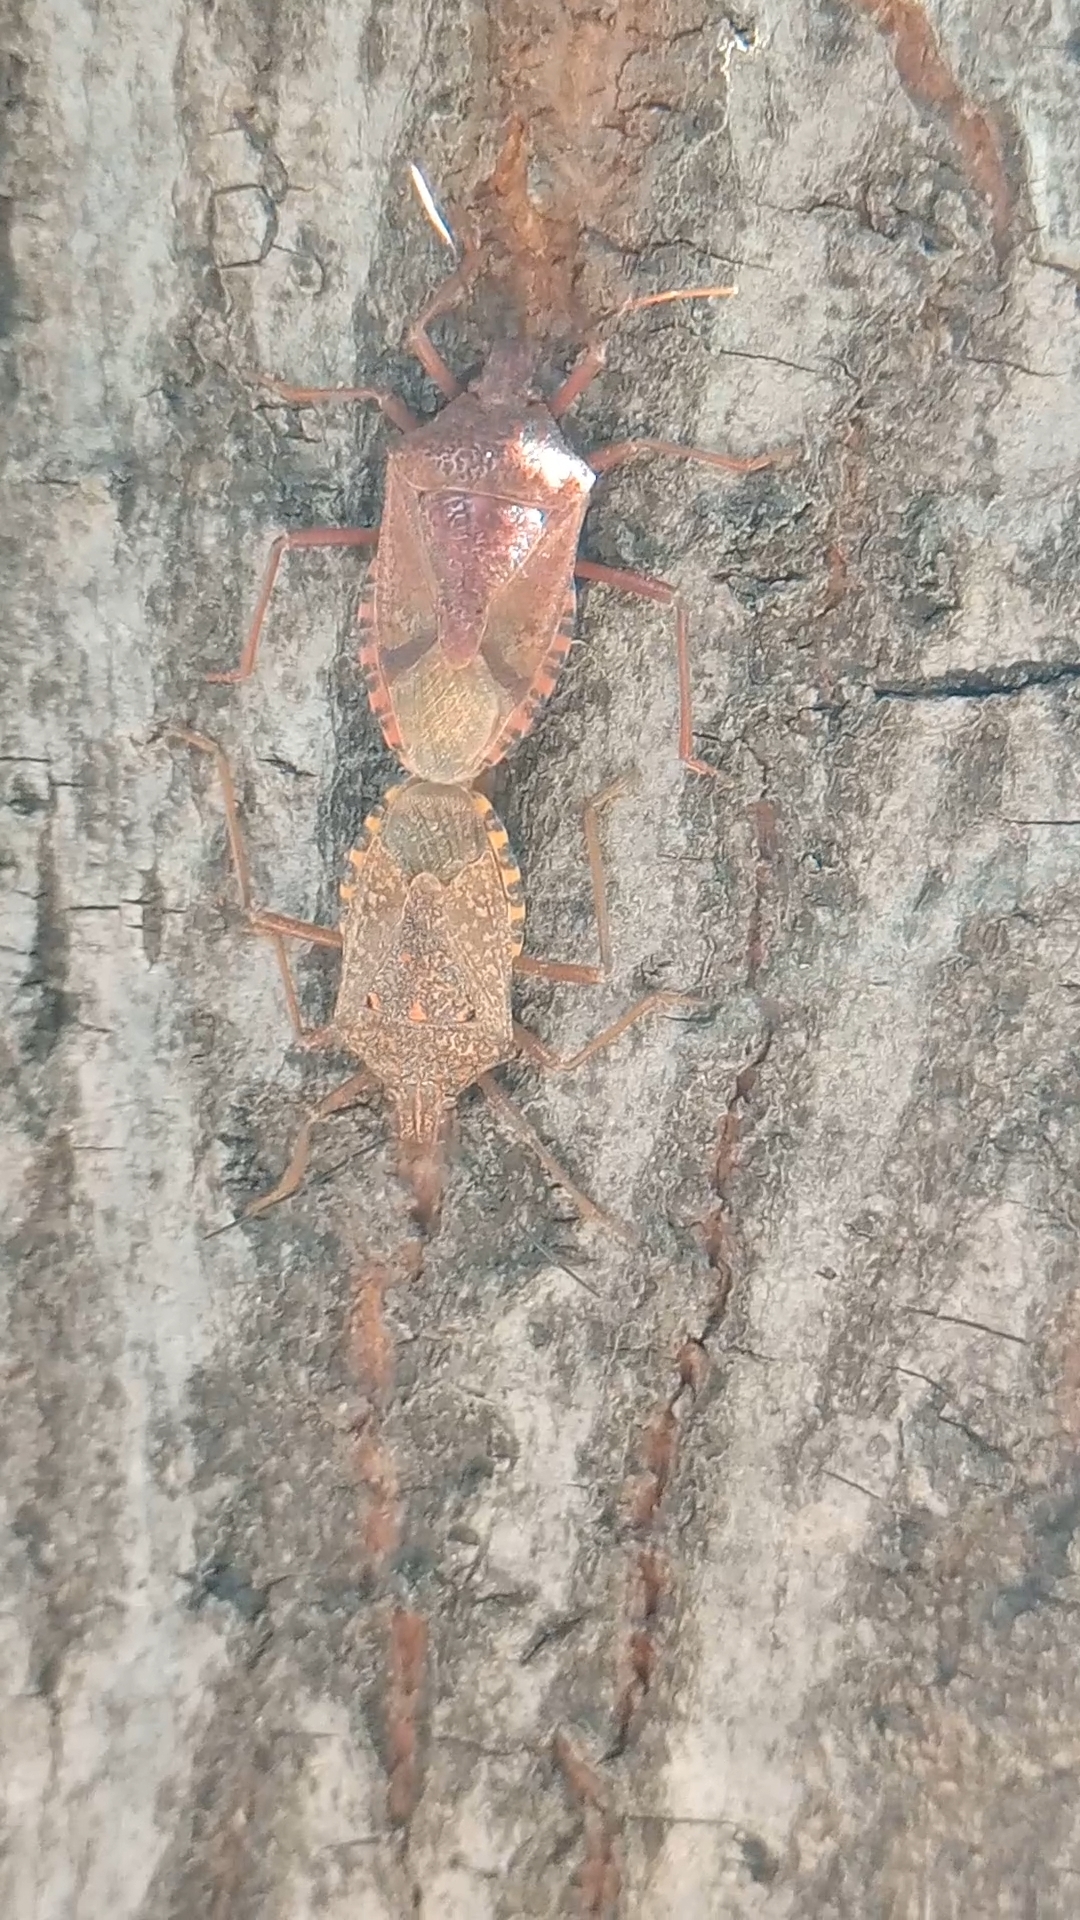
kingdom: Animalia
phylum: Arthropoda
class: Insecta
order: Hemiptera
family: Pentatomidae
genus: Apodiphus
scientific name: Apodiphus
